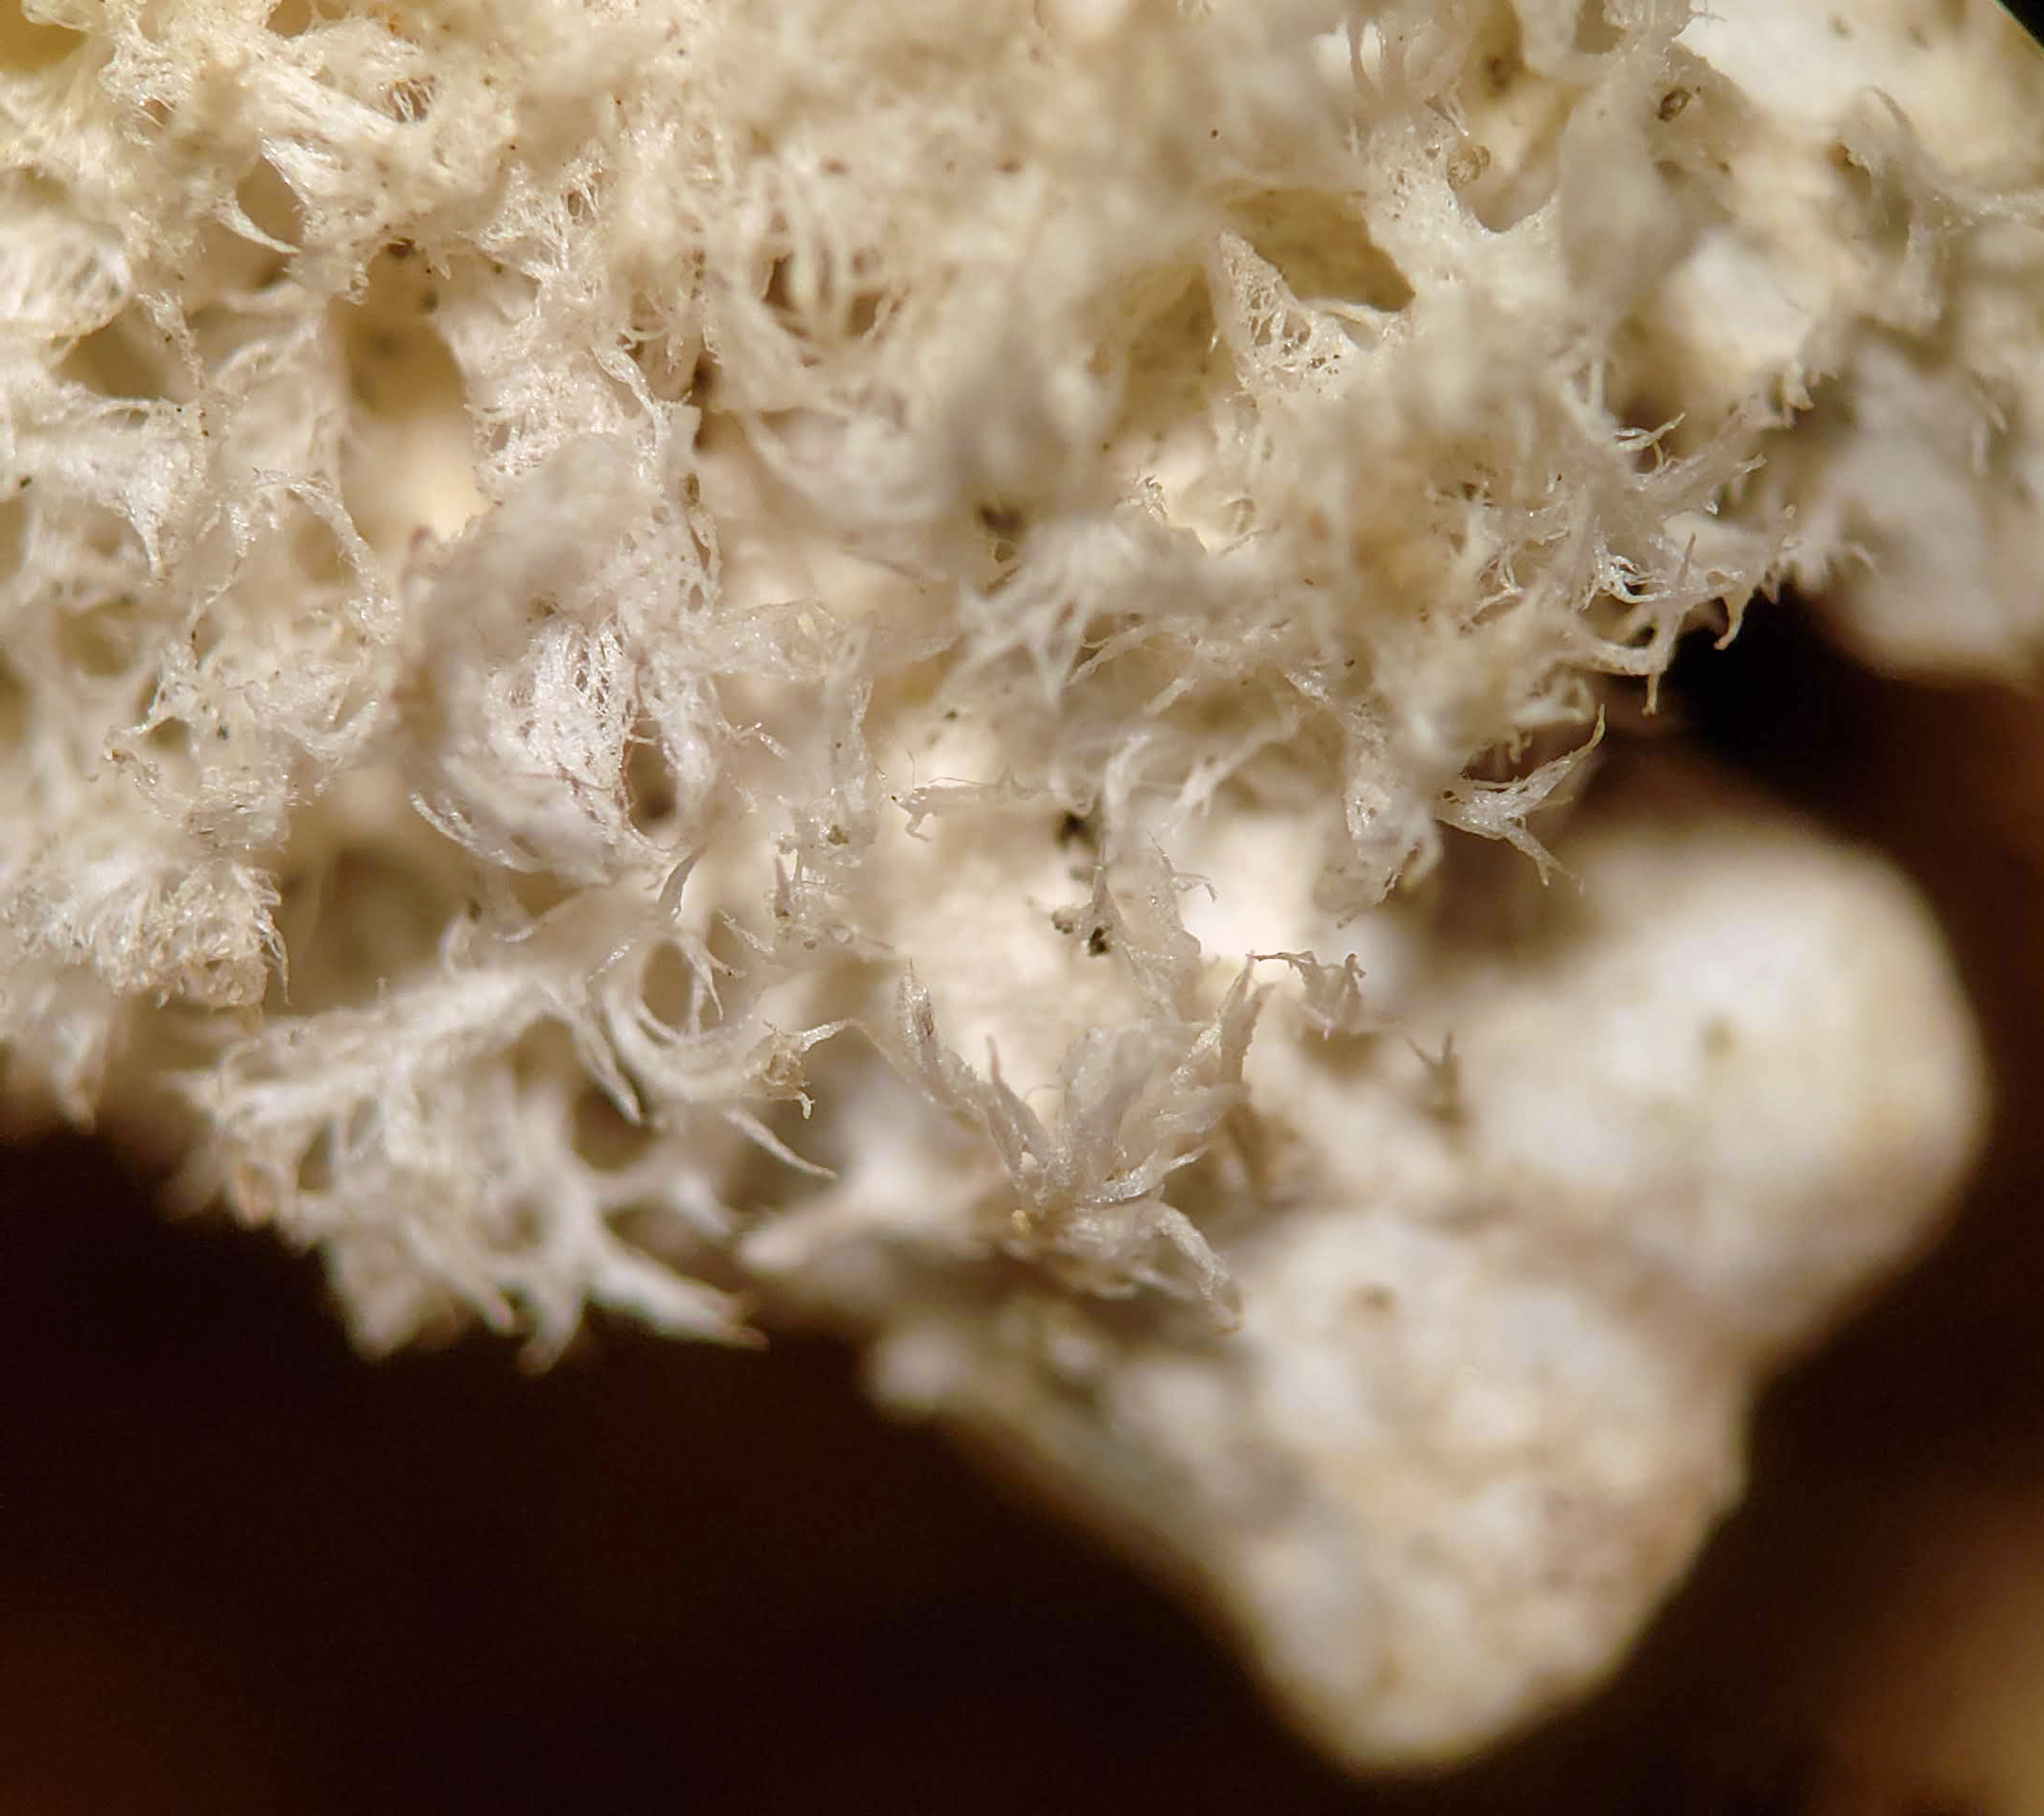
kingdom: Fungi
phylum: Ascomycota
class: Lecanoromycetes
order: Peltigerales
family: Peltigeraceae
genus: Peltigera
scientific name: Peltigera extenuata
